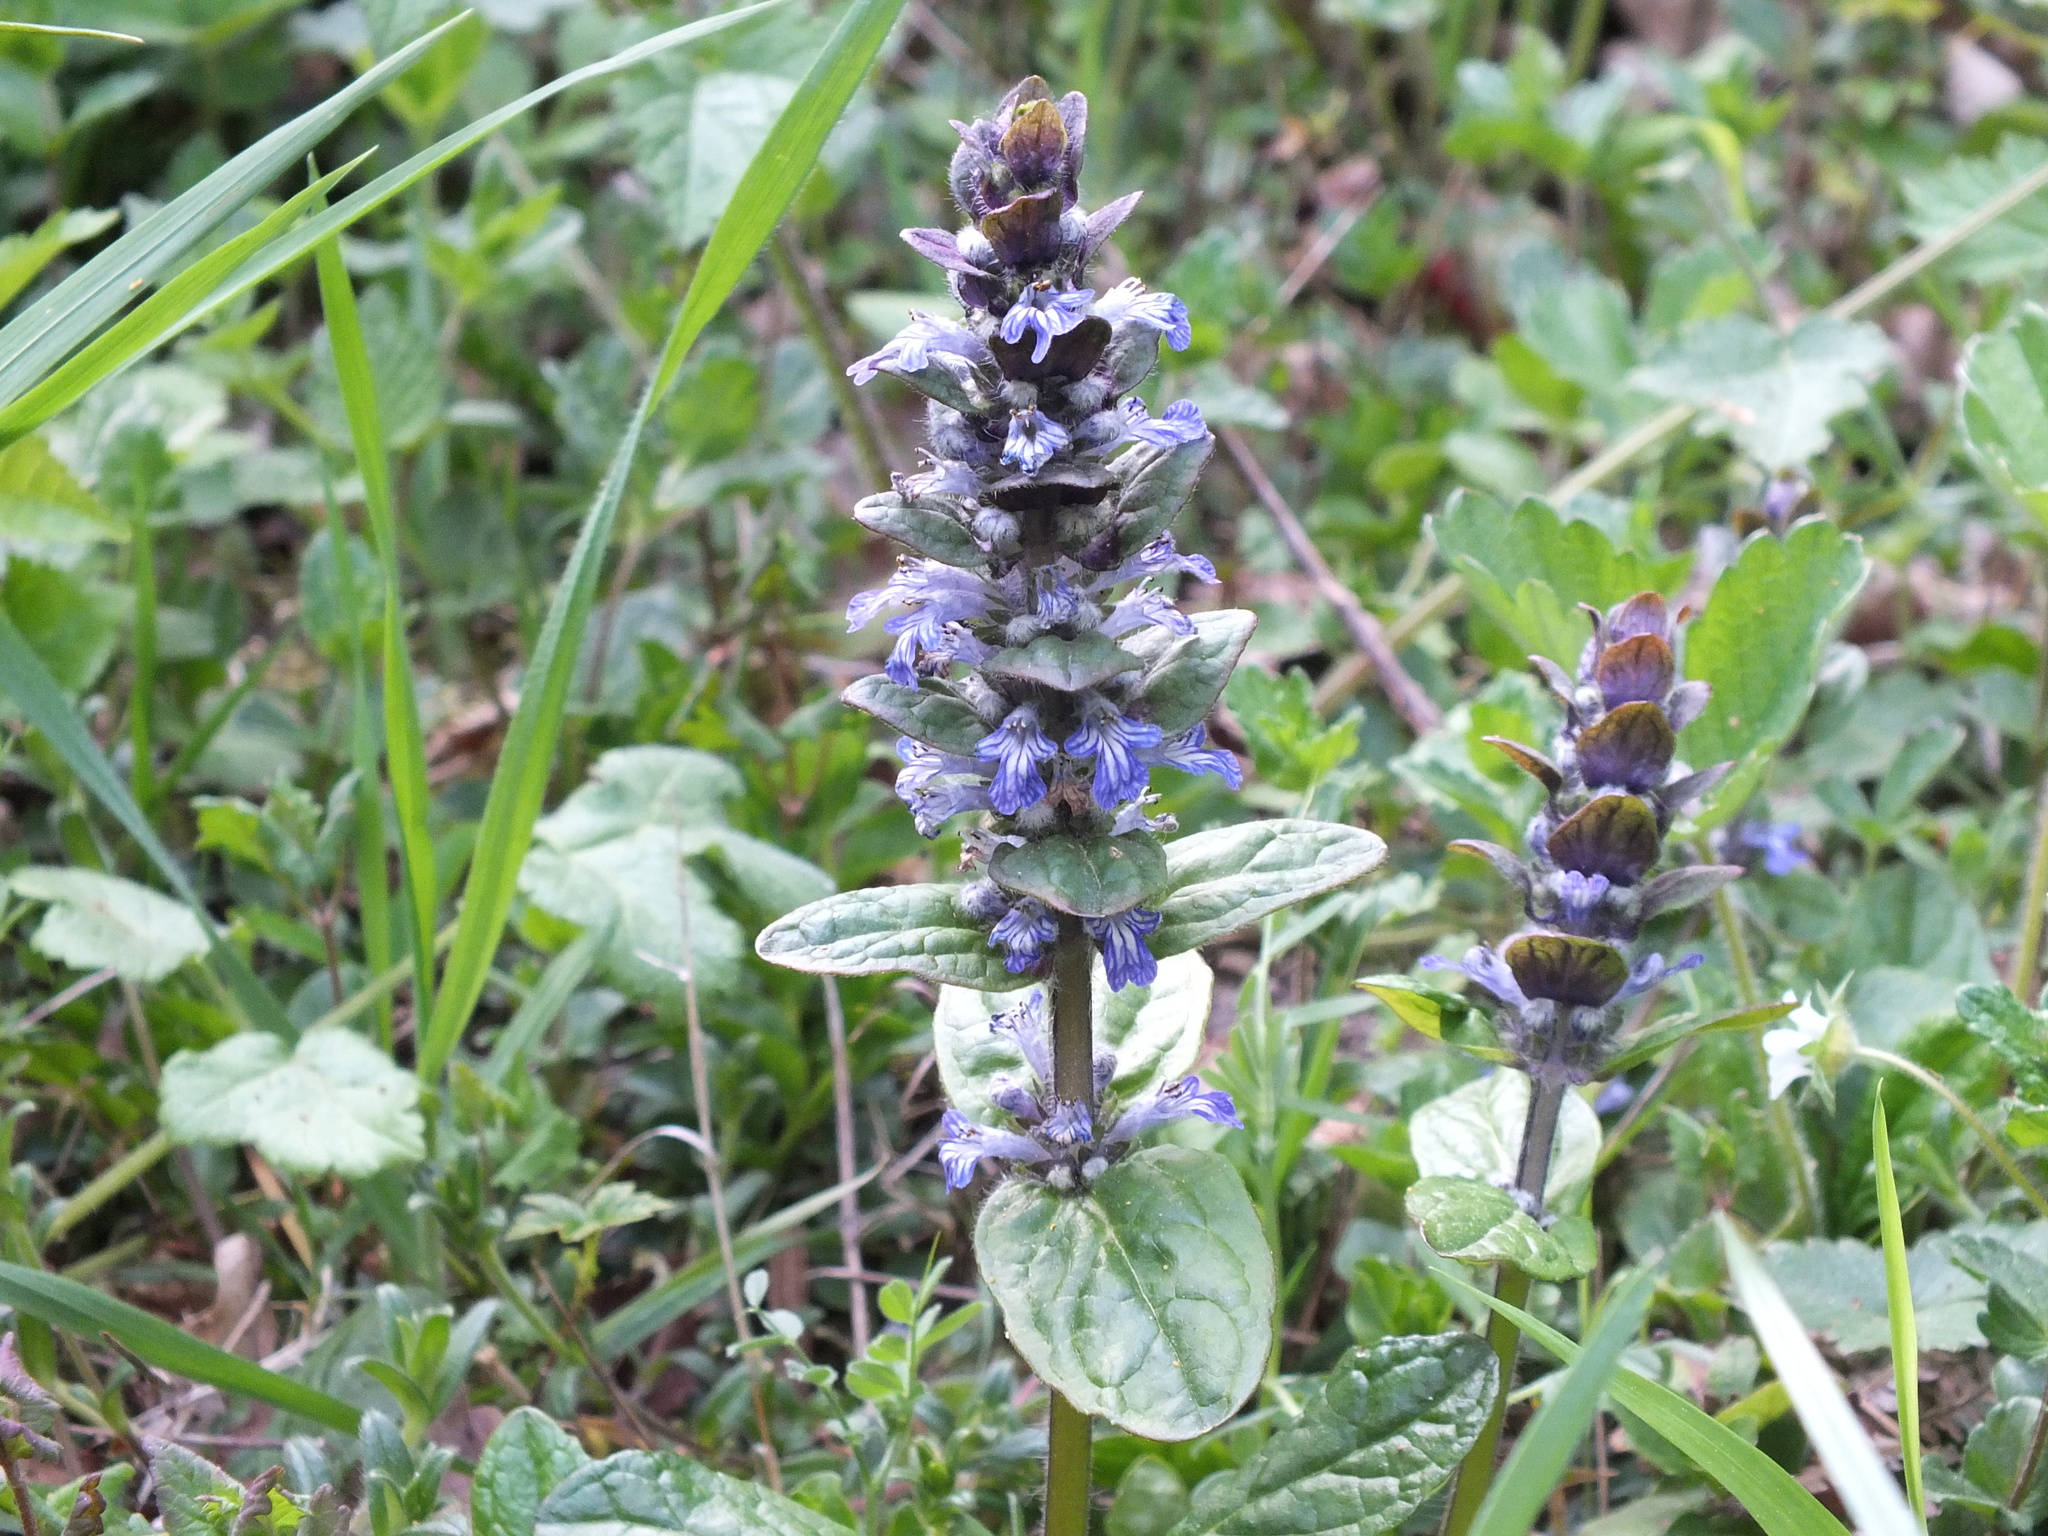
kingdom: Plantae
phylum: Tracheophyta
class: Magnoliopsida
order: Lamiales
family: Lamiaceae
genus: Ajuga
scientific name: Ajuga reptans
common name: Bugle
